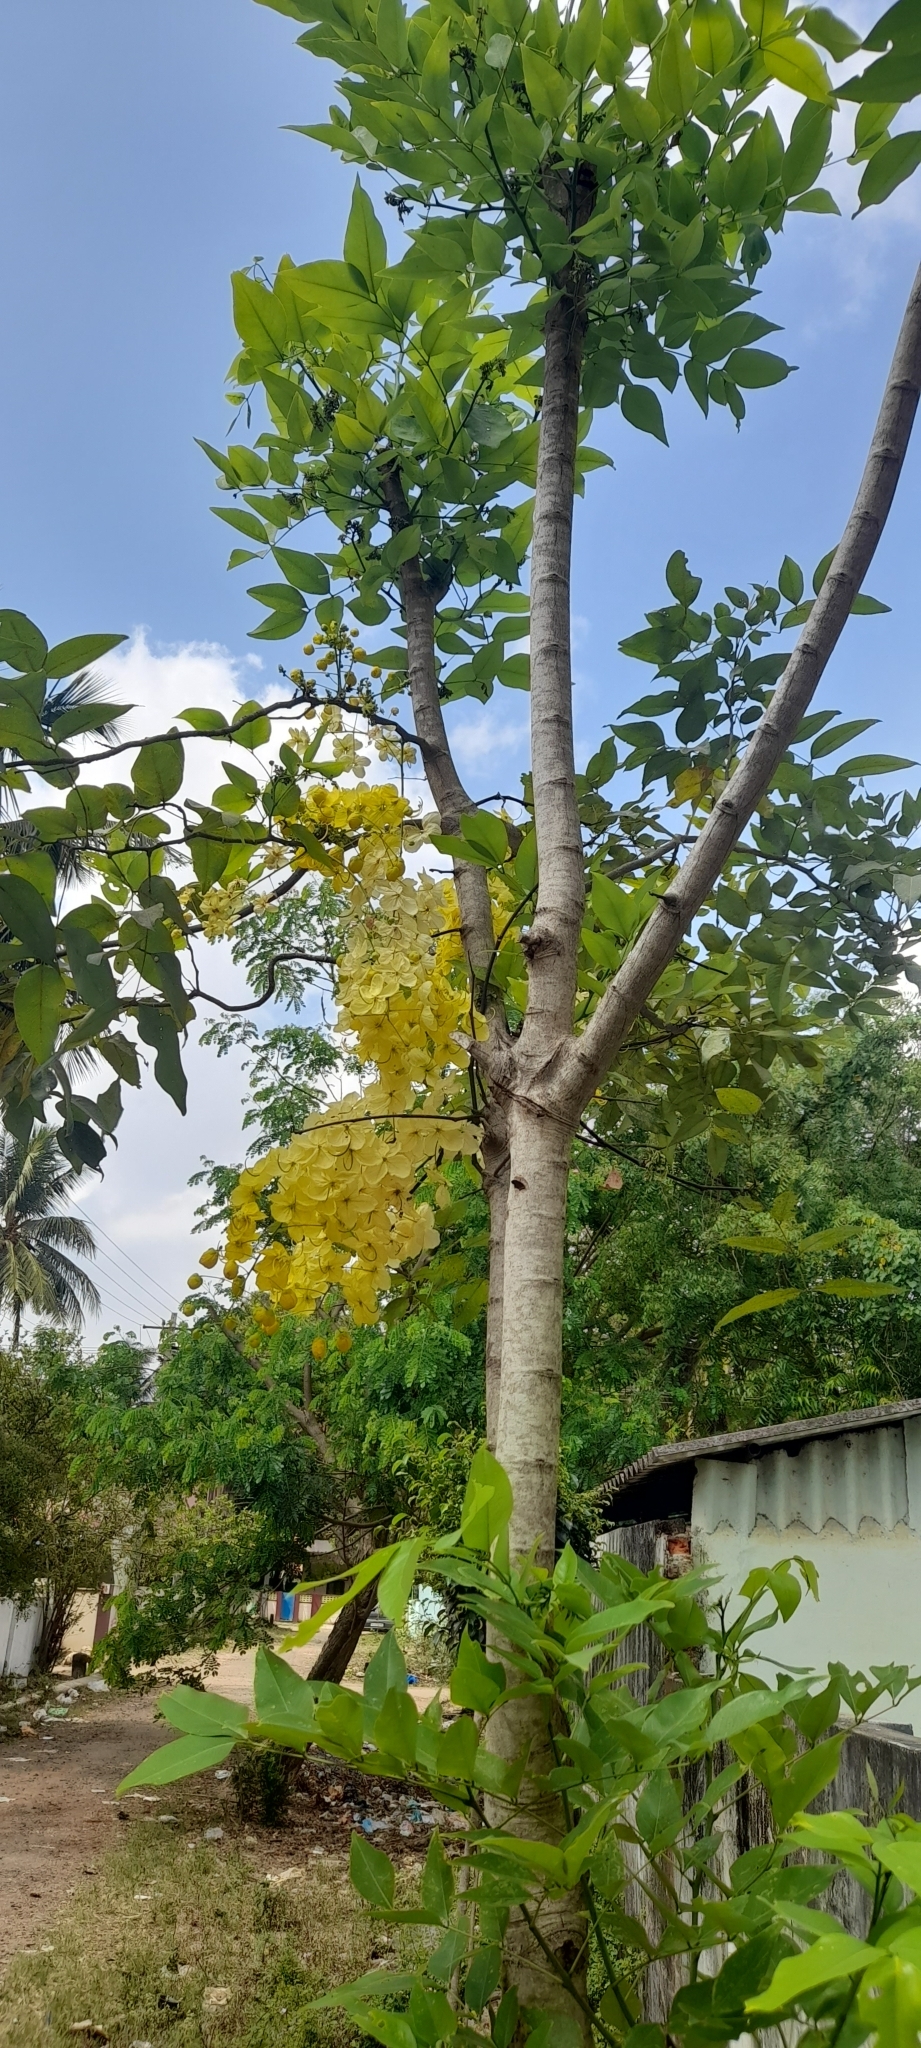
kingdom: Plantae
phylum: Tracheophyta
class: Magnoliopsida
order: Fabales
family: Fabaceae
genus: Cassia
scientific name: Cassia fistula
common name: Golden shower
